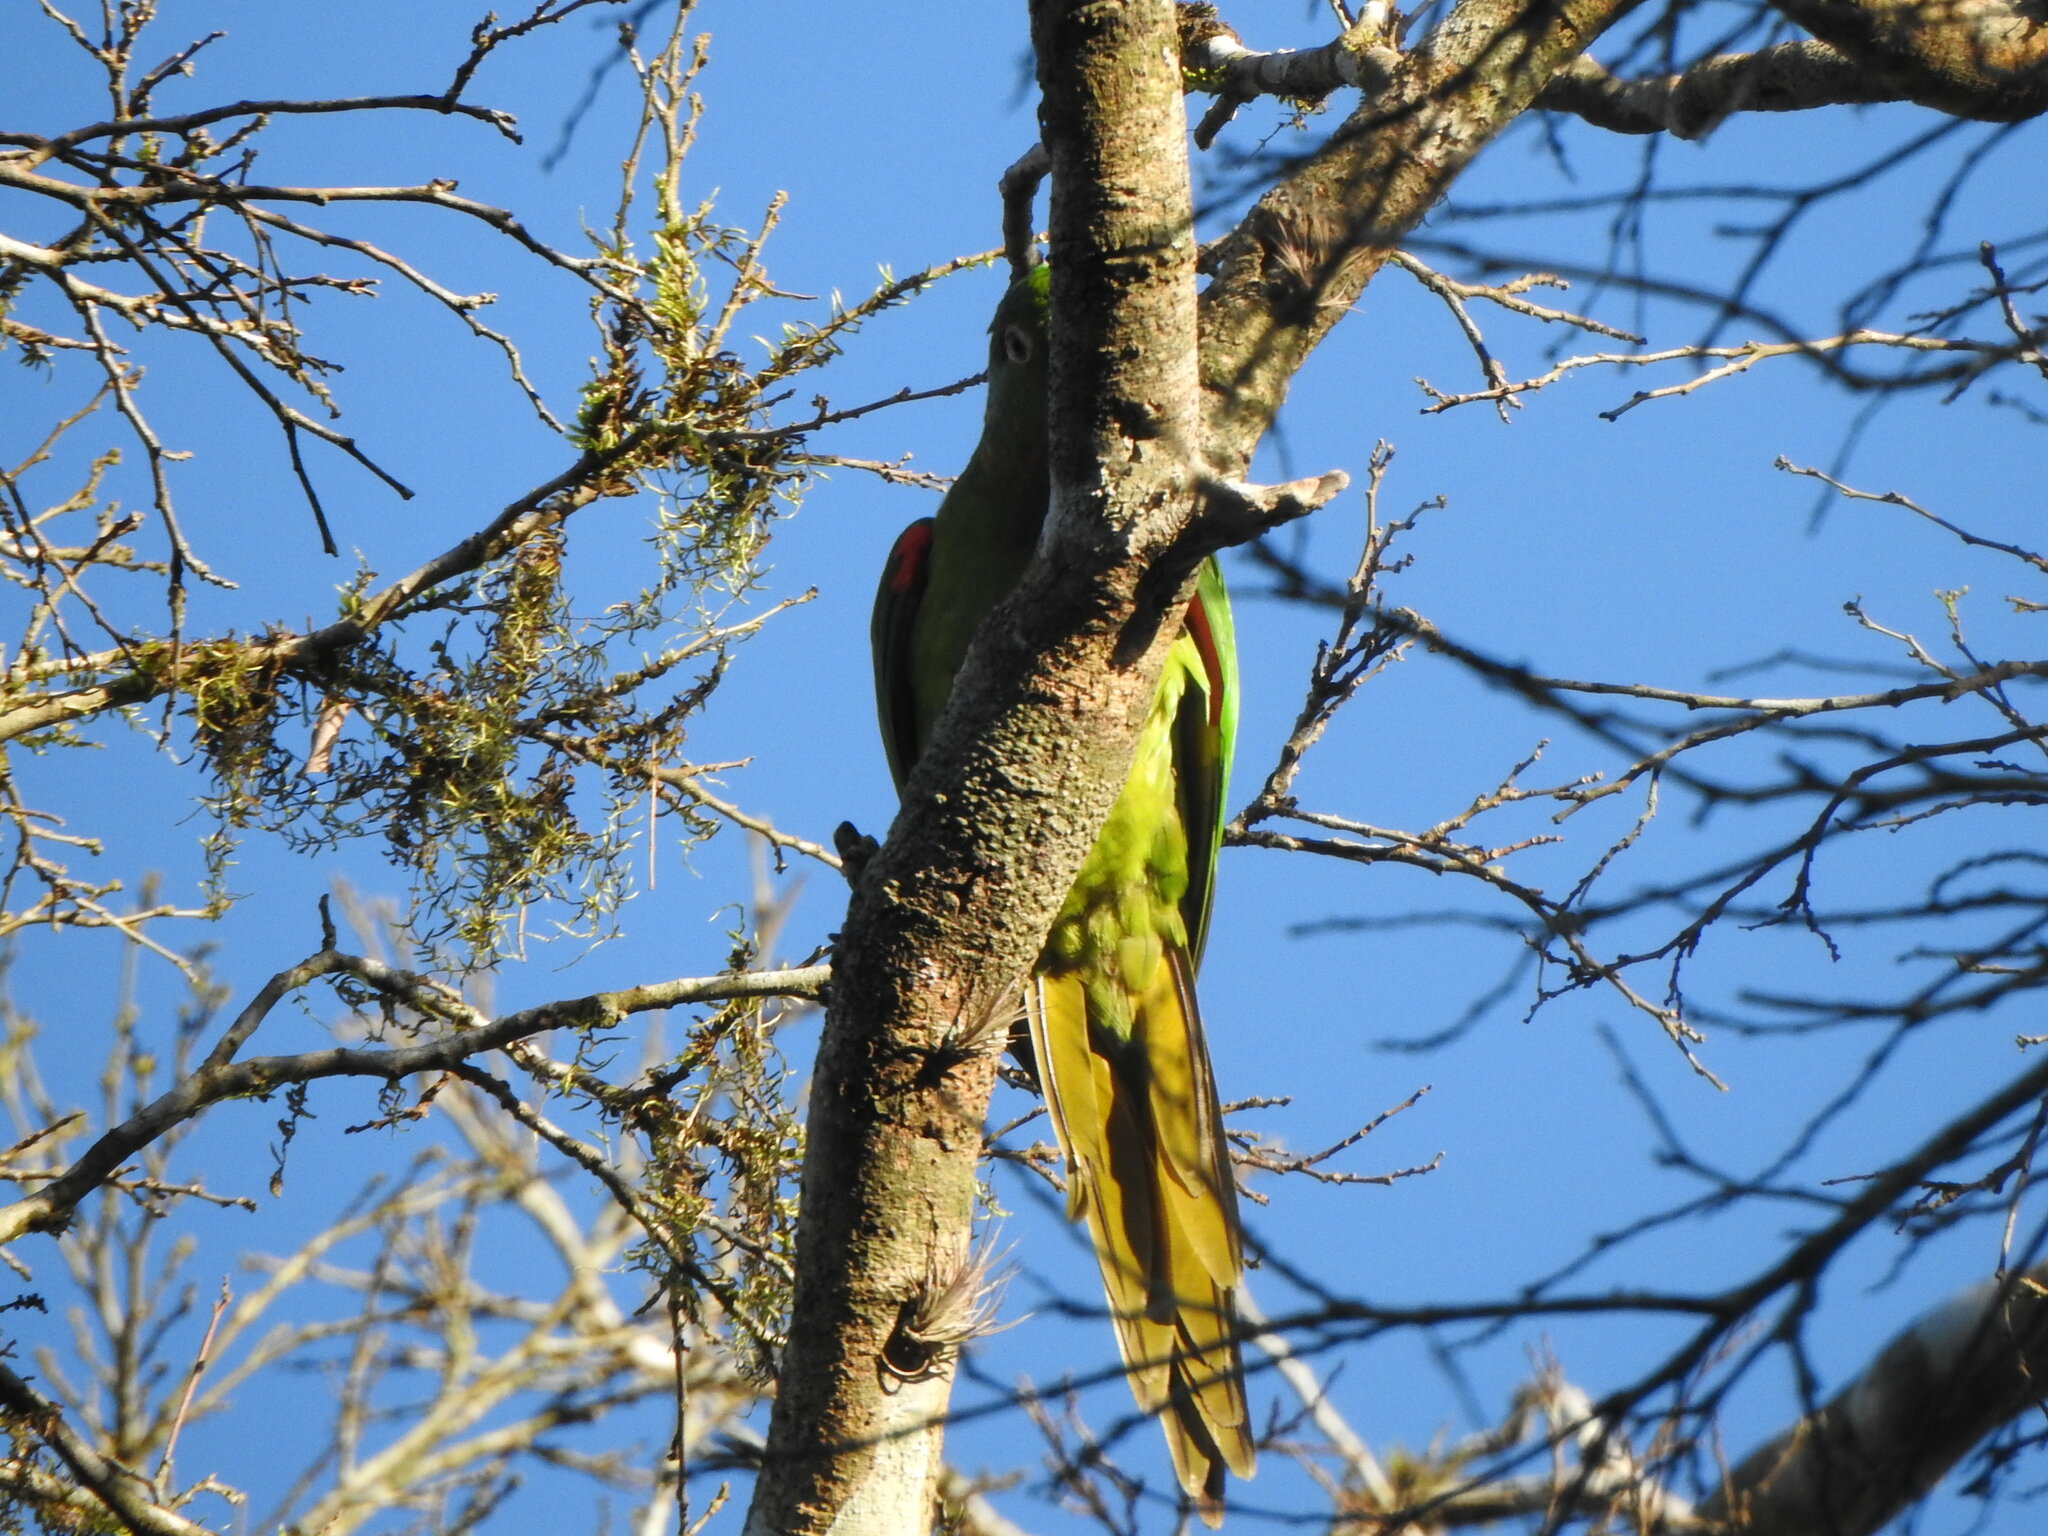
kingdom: Animalia
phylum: Chordata
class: Aves
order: Psittaciformes
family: Psittacidae
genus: Aratinga
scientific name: Aratinga leucophthalma
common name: White-eyed parakeet
